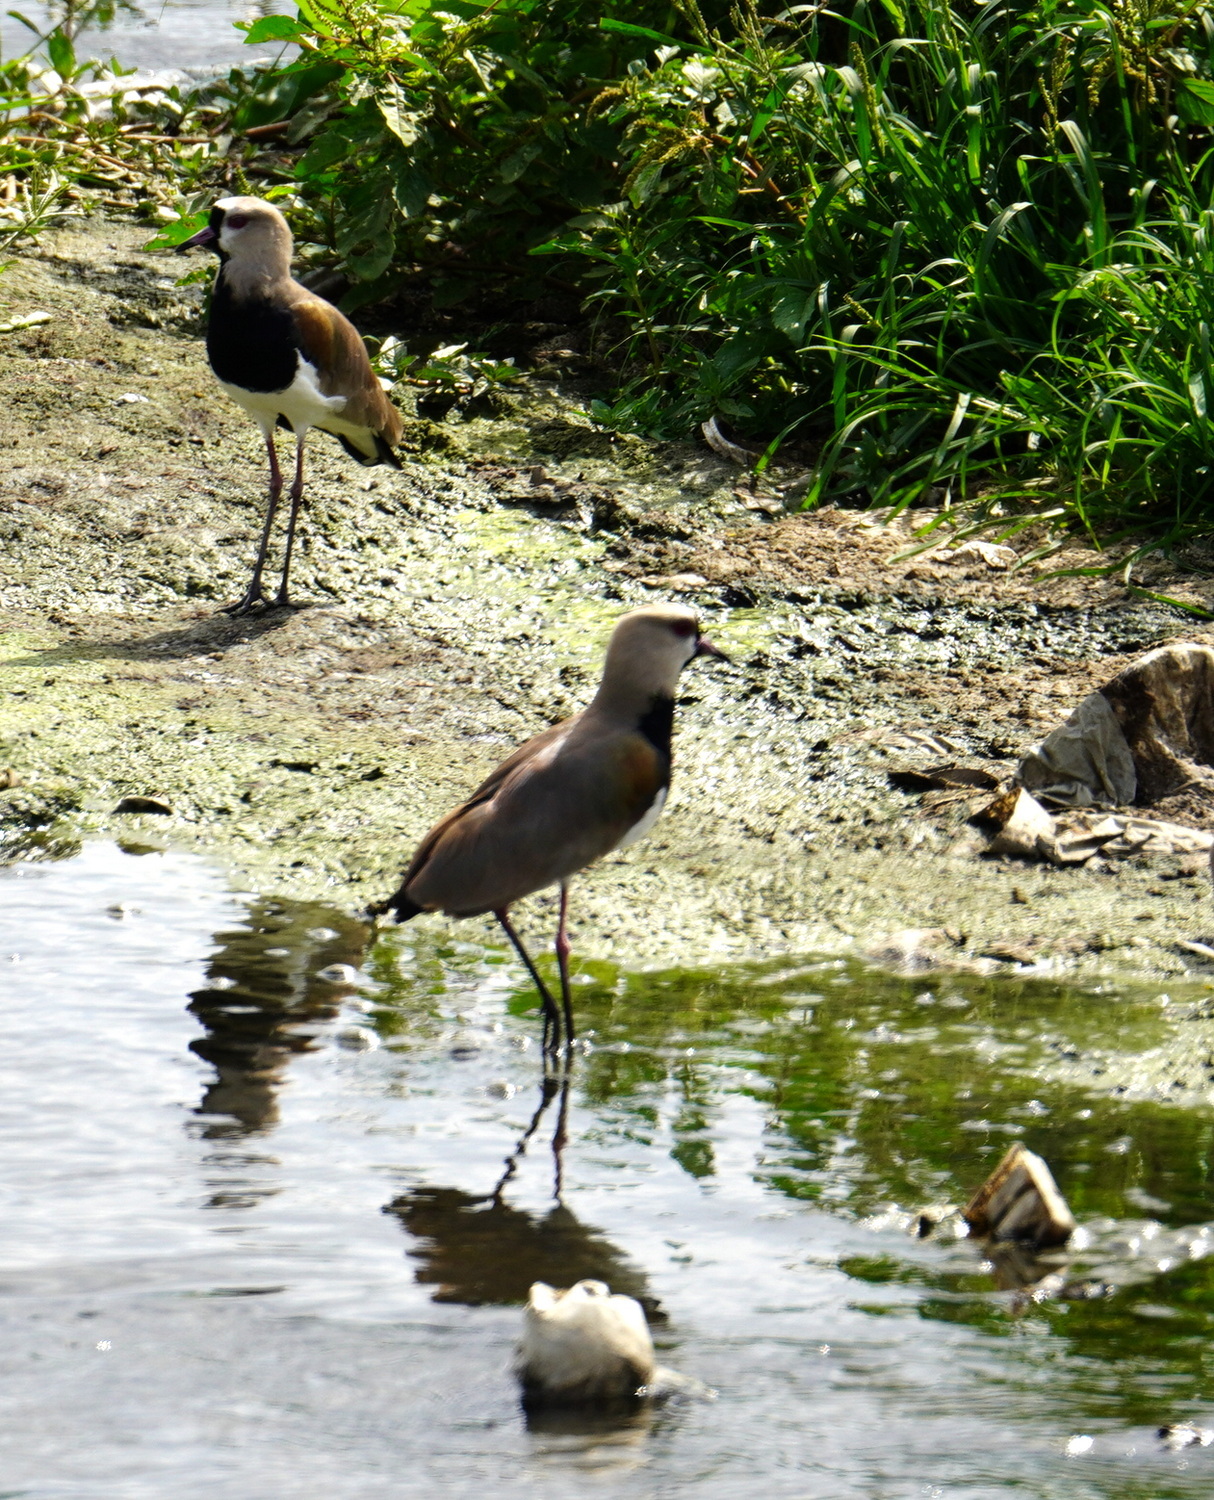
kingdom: Animalia
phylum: Chordata
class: Aves
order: Charadriiformes
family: Charadriidae
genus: Vanellus
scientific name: Vanellus chilensis
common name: Southern lapwing
